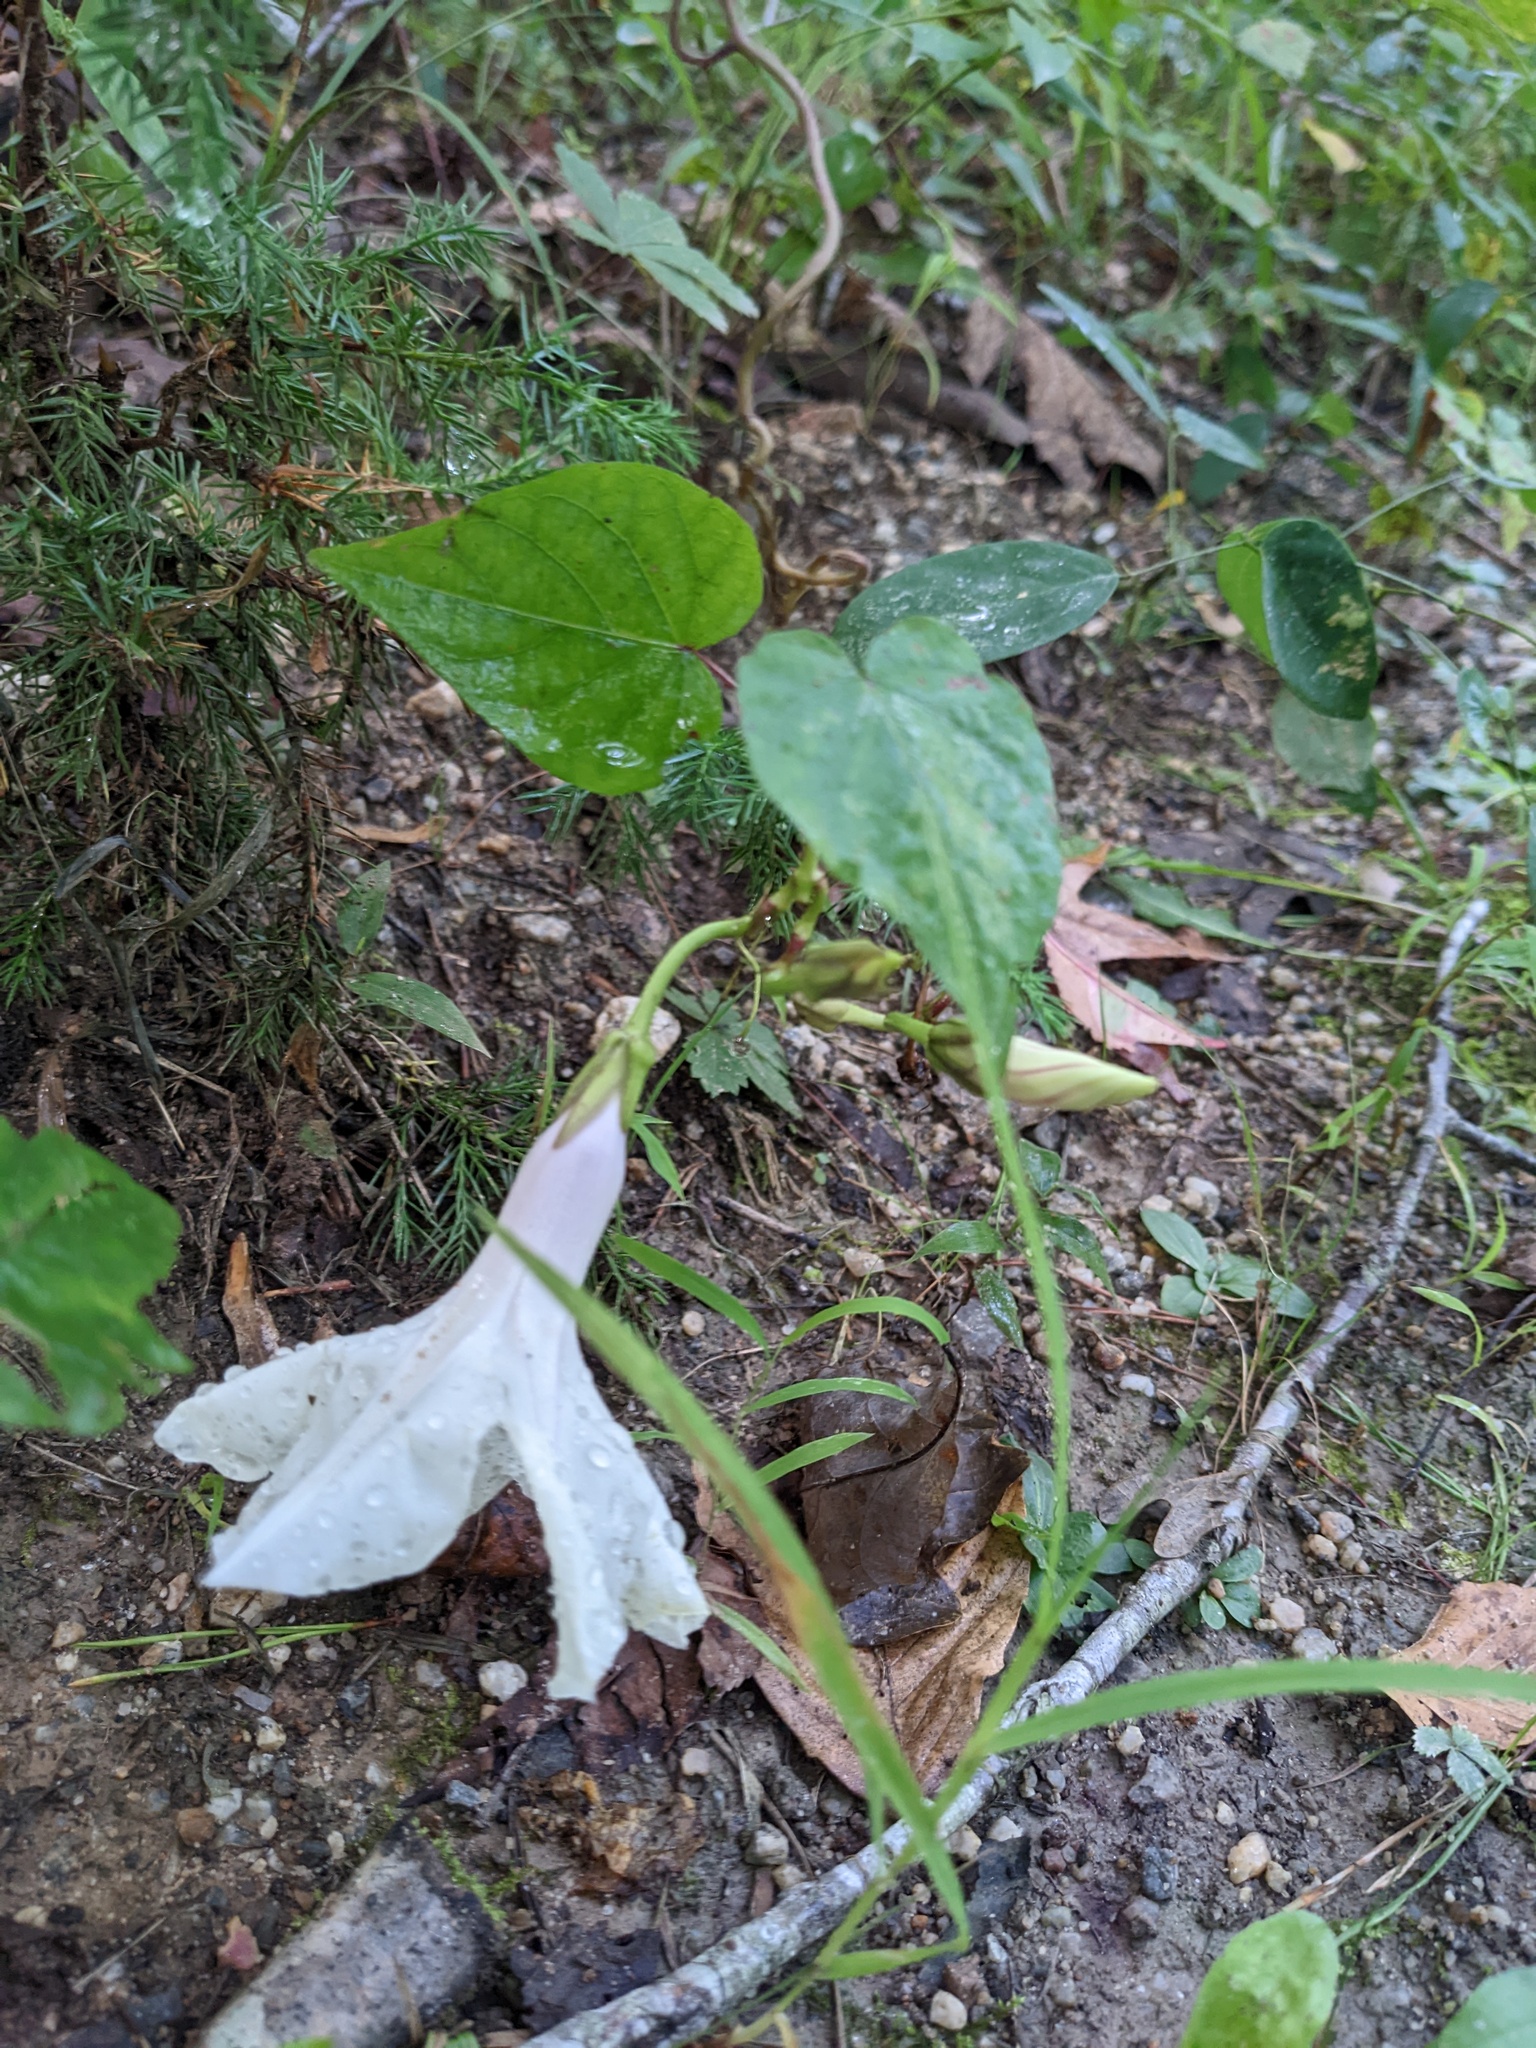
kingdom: Plantae
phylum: Tracheophyta
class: Magnoliopsida
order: Solanales
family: Convolvulaceae
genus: Ipomoea
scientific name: Ipomoea pandurata
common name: Man-of-the-earth
